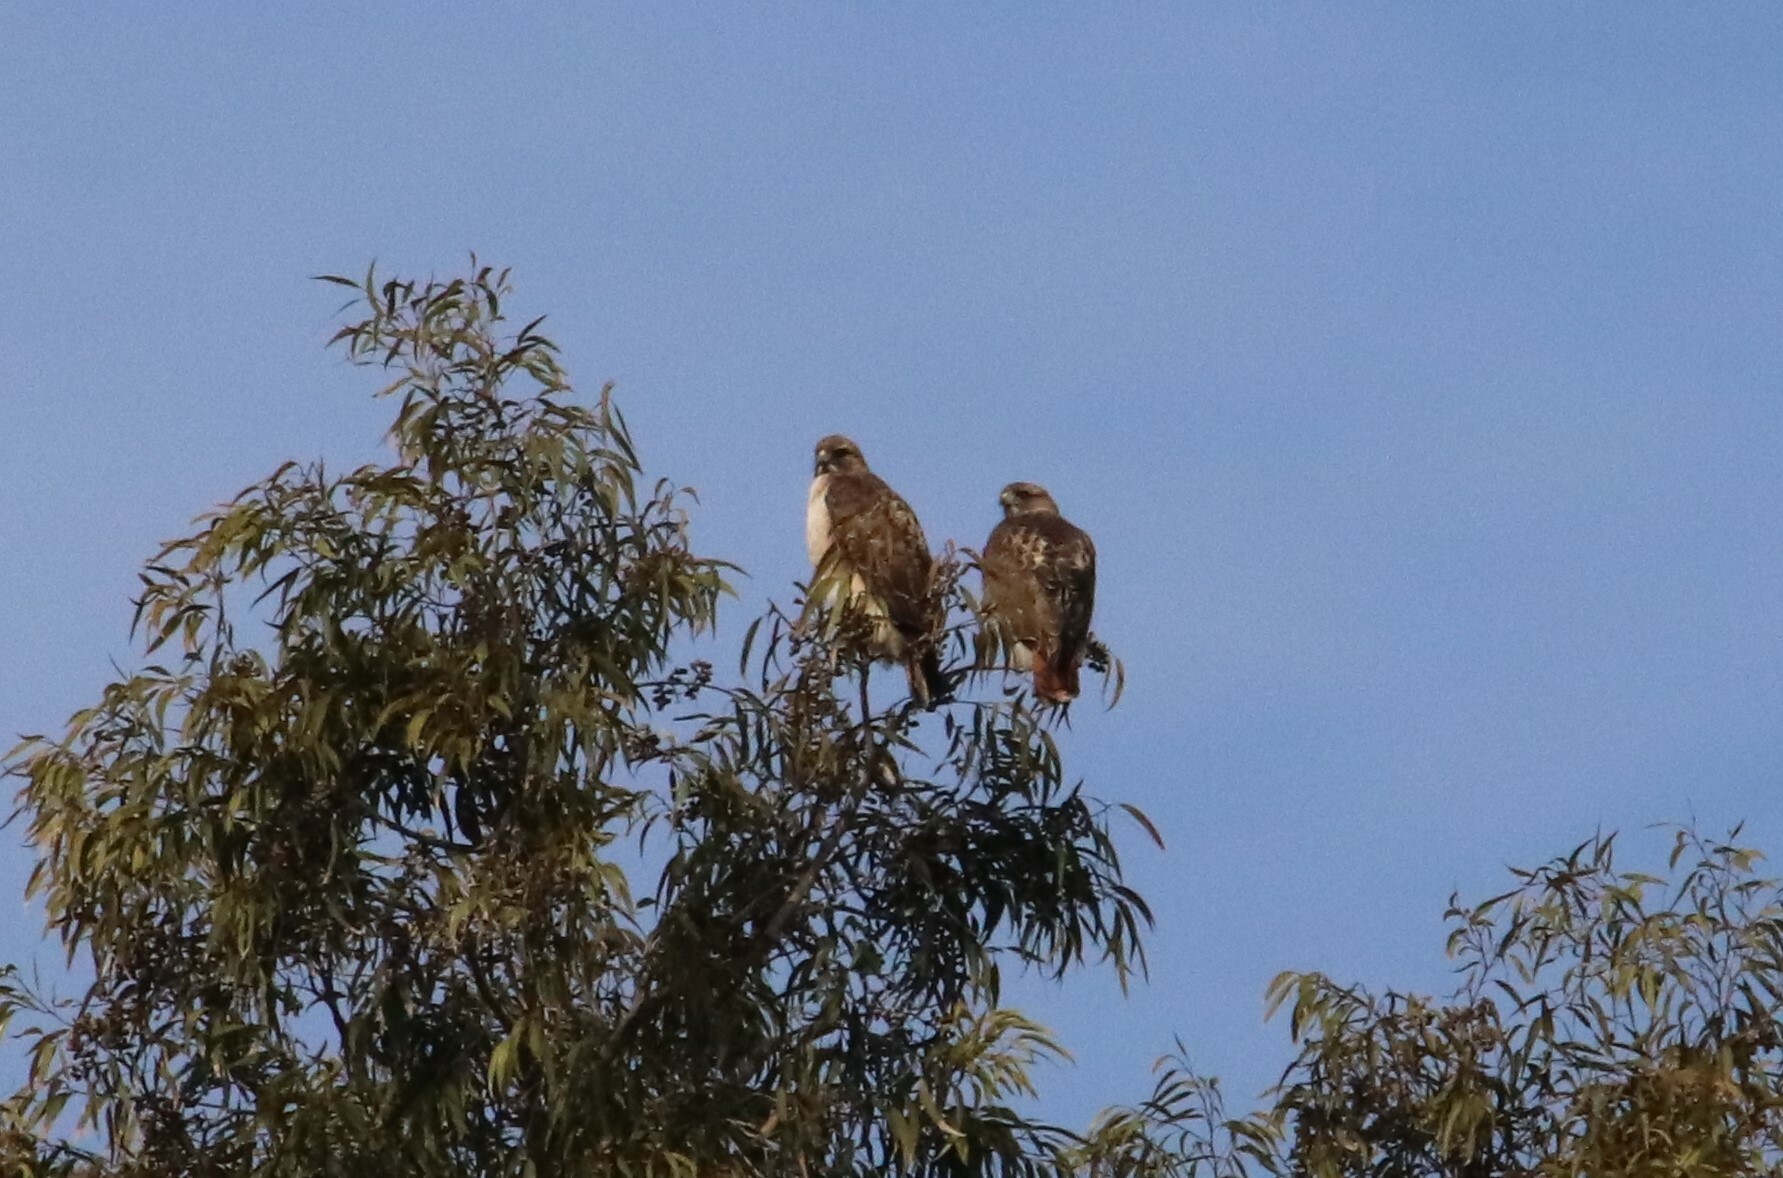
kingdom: Animalia
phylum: Chordata
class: Aves
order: Accipitriformes
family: Accipitridae
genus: Buteo
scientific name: Buteo jamaicensis
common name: Red-tailed hawk
